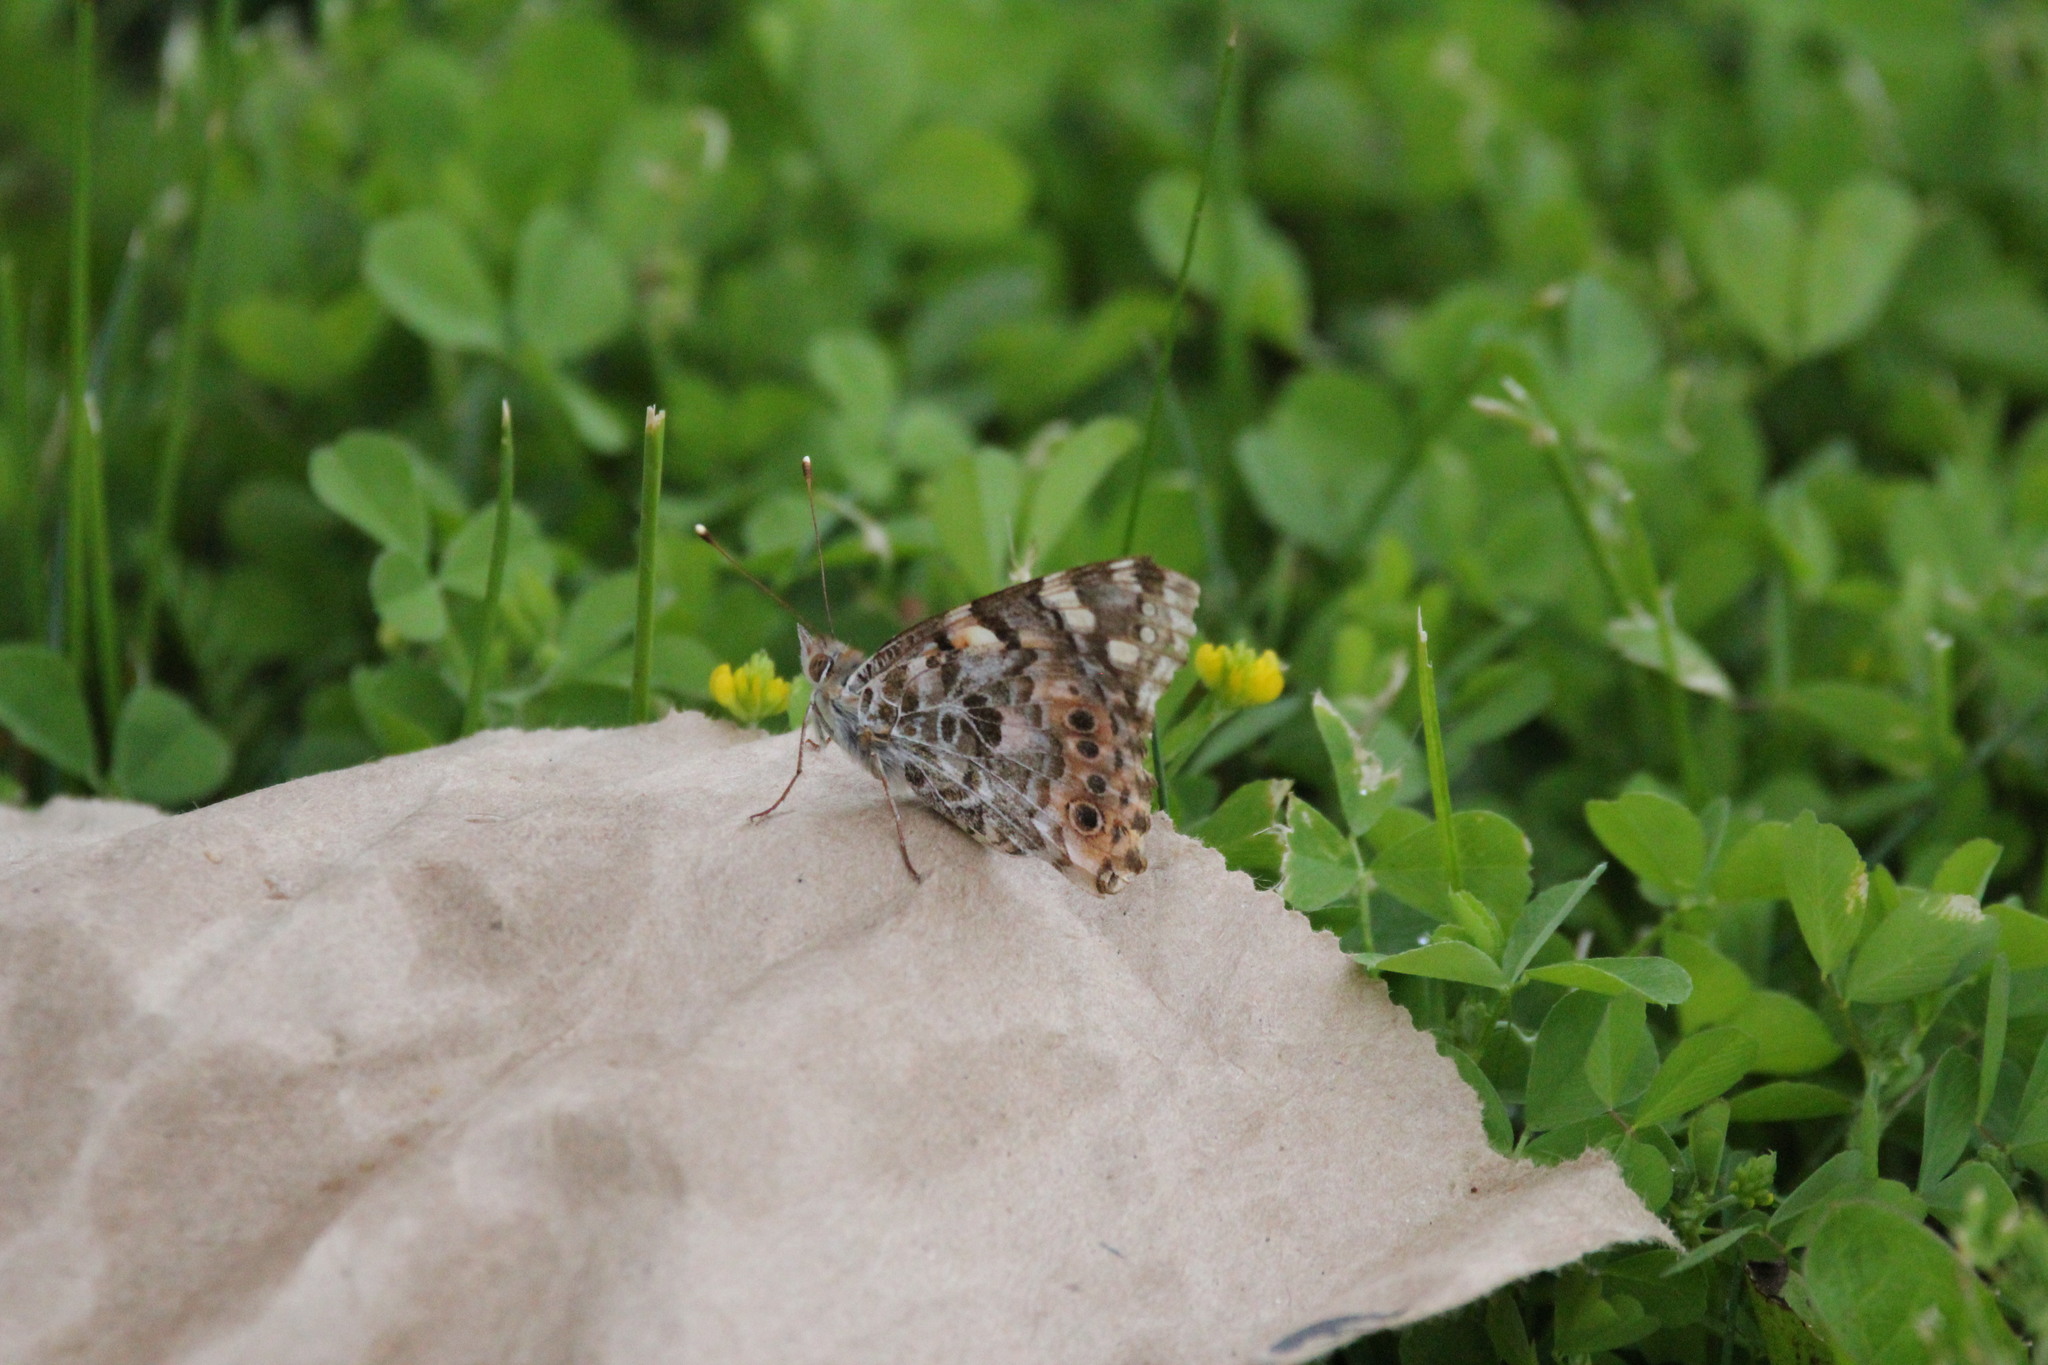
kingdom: Animalia
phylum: Arthropoda
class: Insecta
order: Lepidoptera
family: Nymphalidae
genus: Vanessa
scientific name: Vanessa cardui
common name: Painted lady
